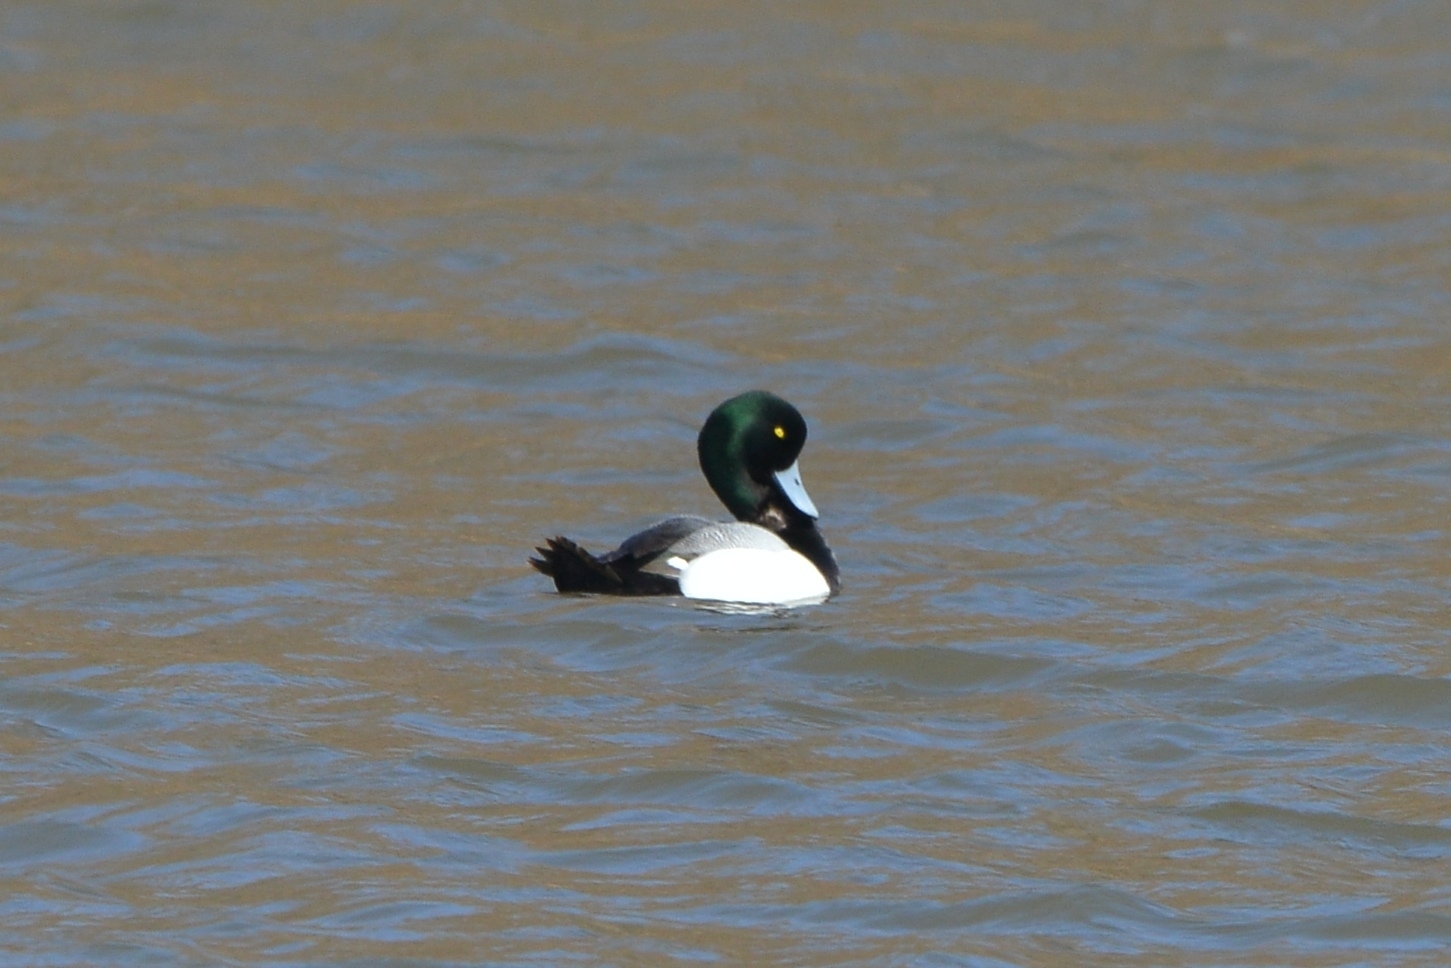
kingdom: Animalia
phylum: Chordata
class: Aves
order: Anseriformes
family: Anatidae
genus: Aythya
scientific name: Aythya marila
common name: Greater scaup
